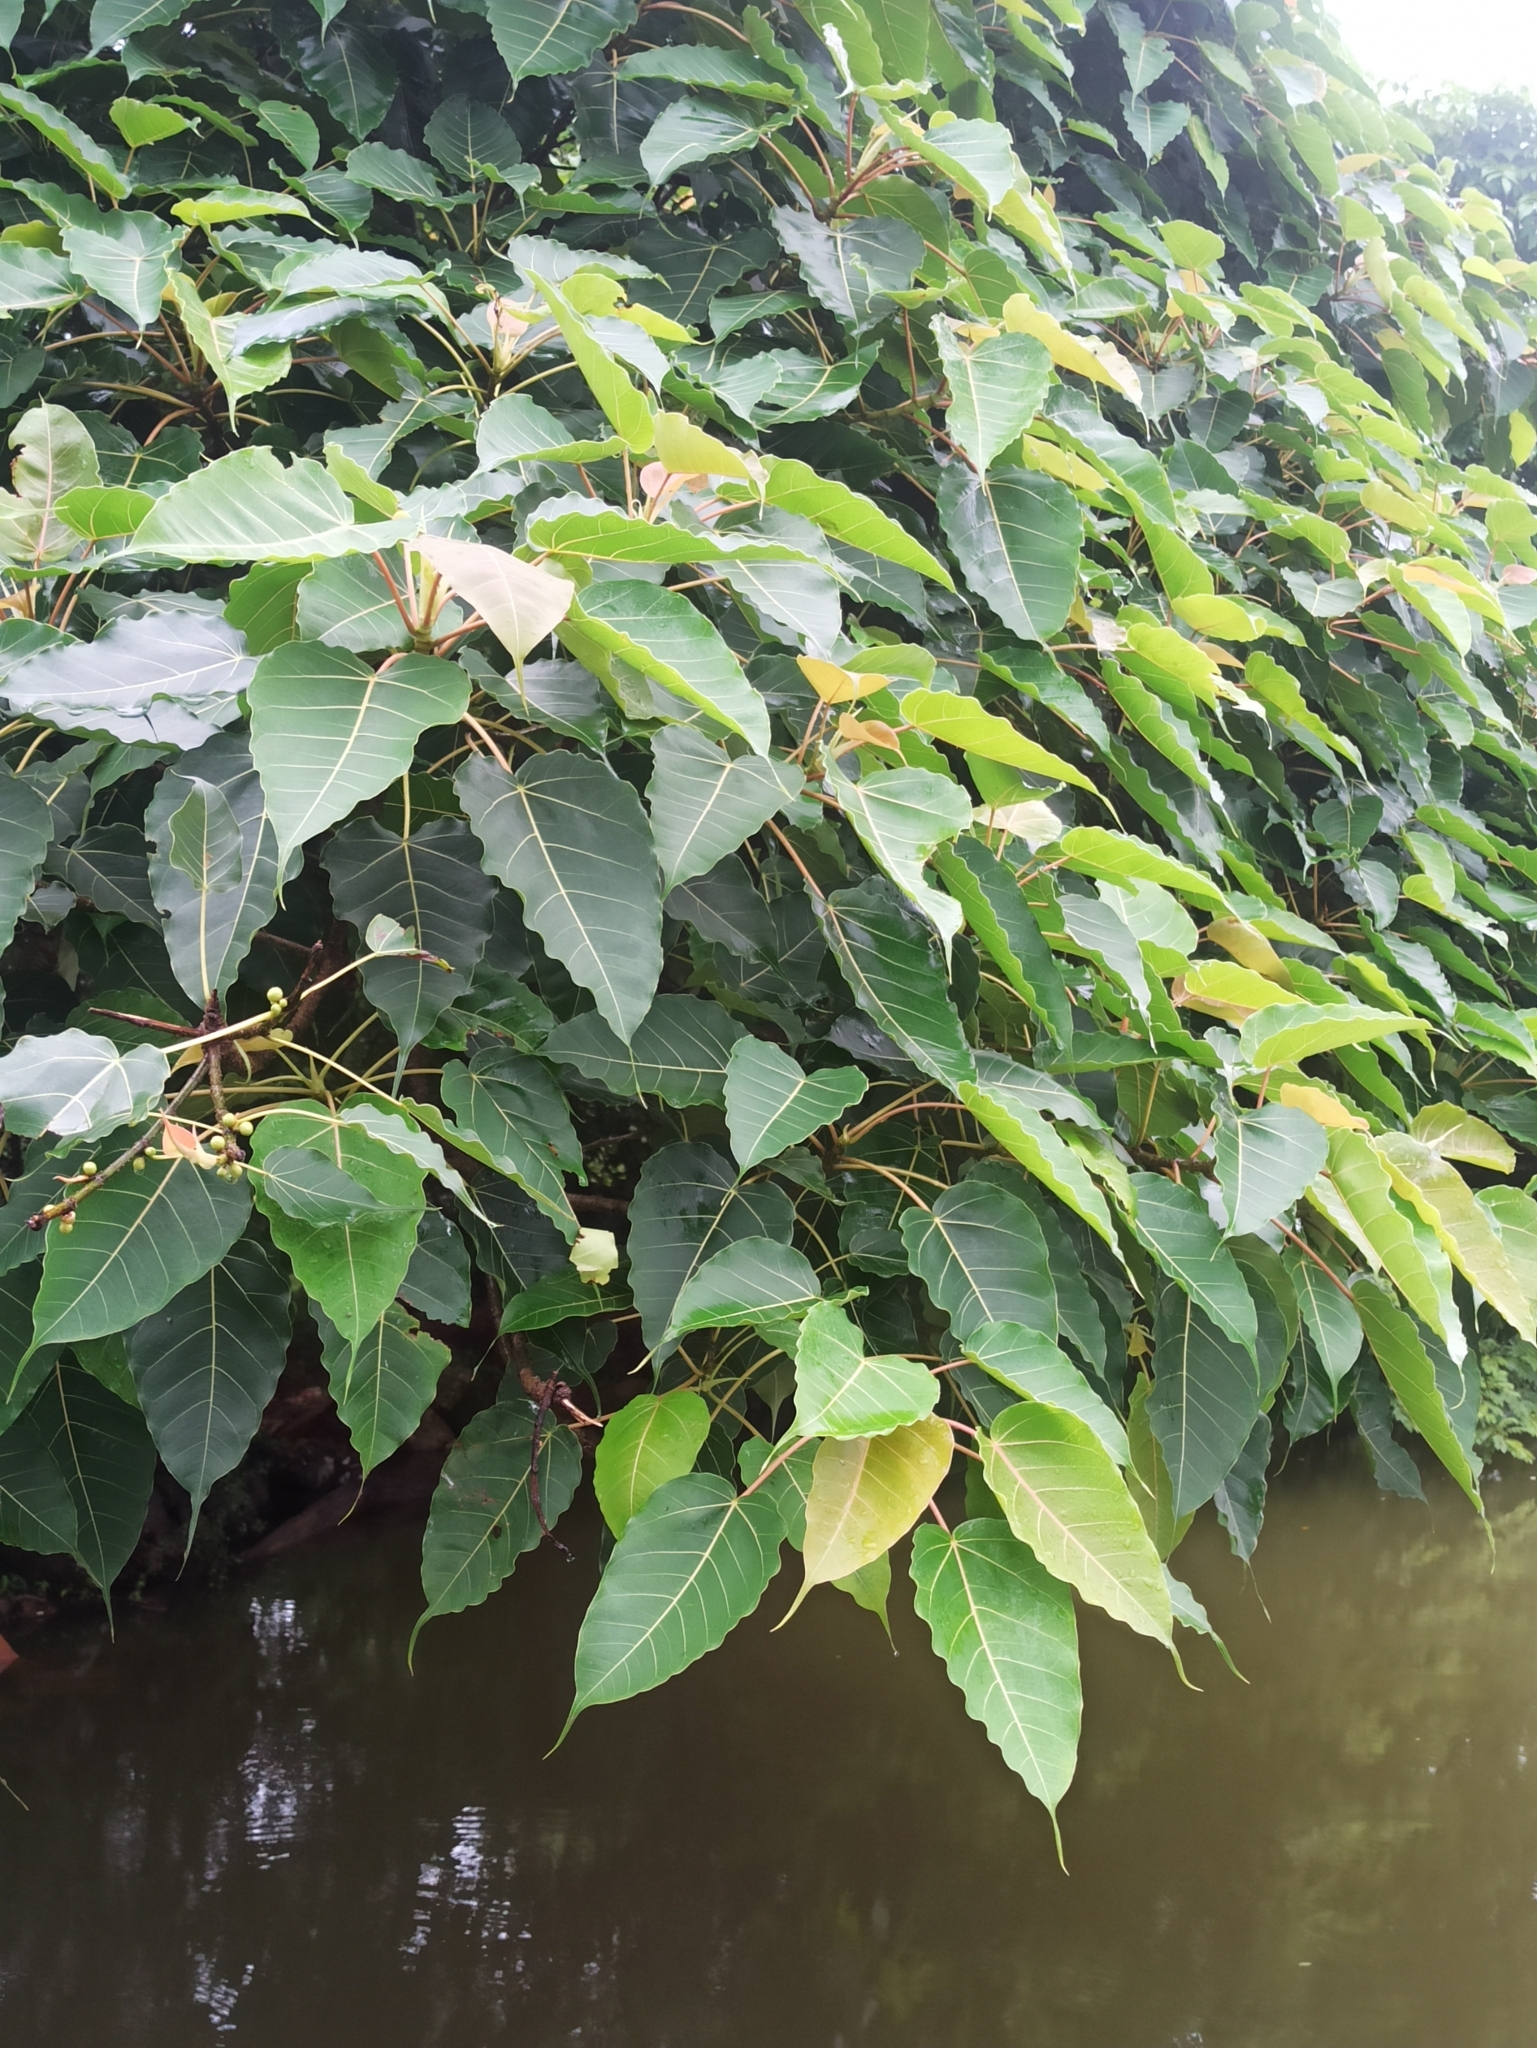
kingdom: Plantae
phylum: Tracheophyta
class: Magnoliopsida
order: Rosales
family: Moraceae
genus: Ficus
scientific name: Ficus religiosa
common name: Bodhi tree
